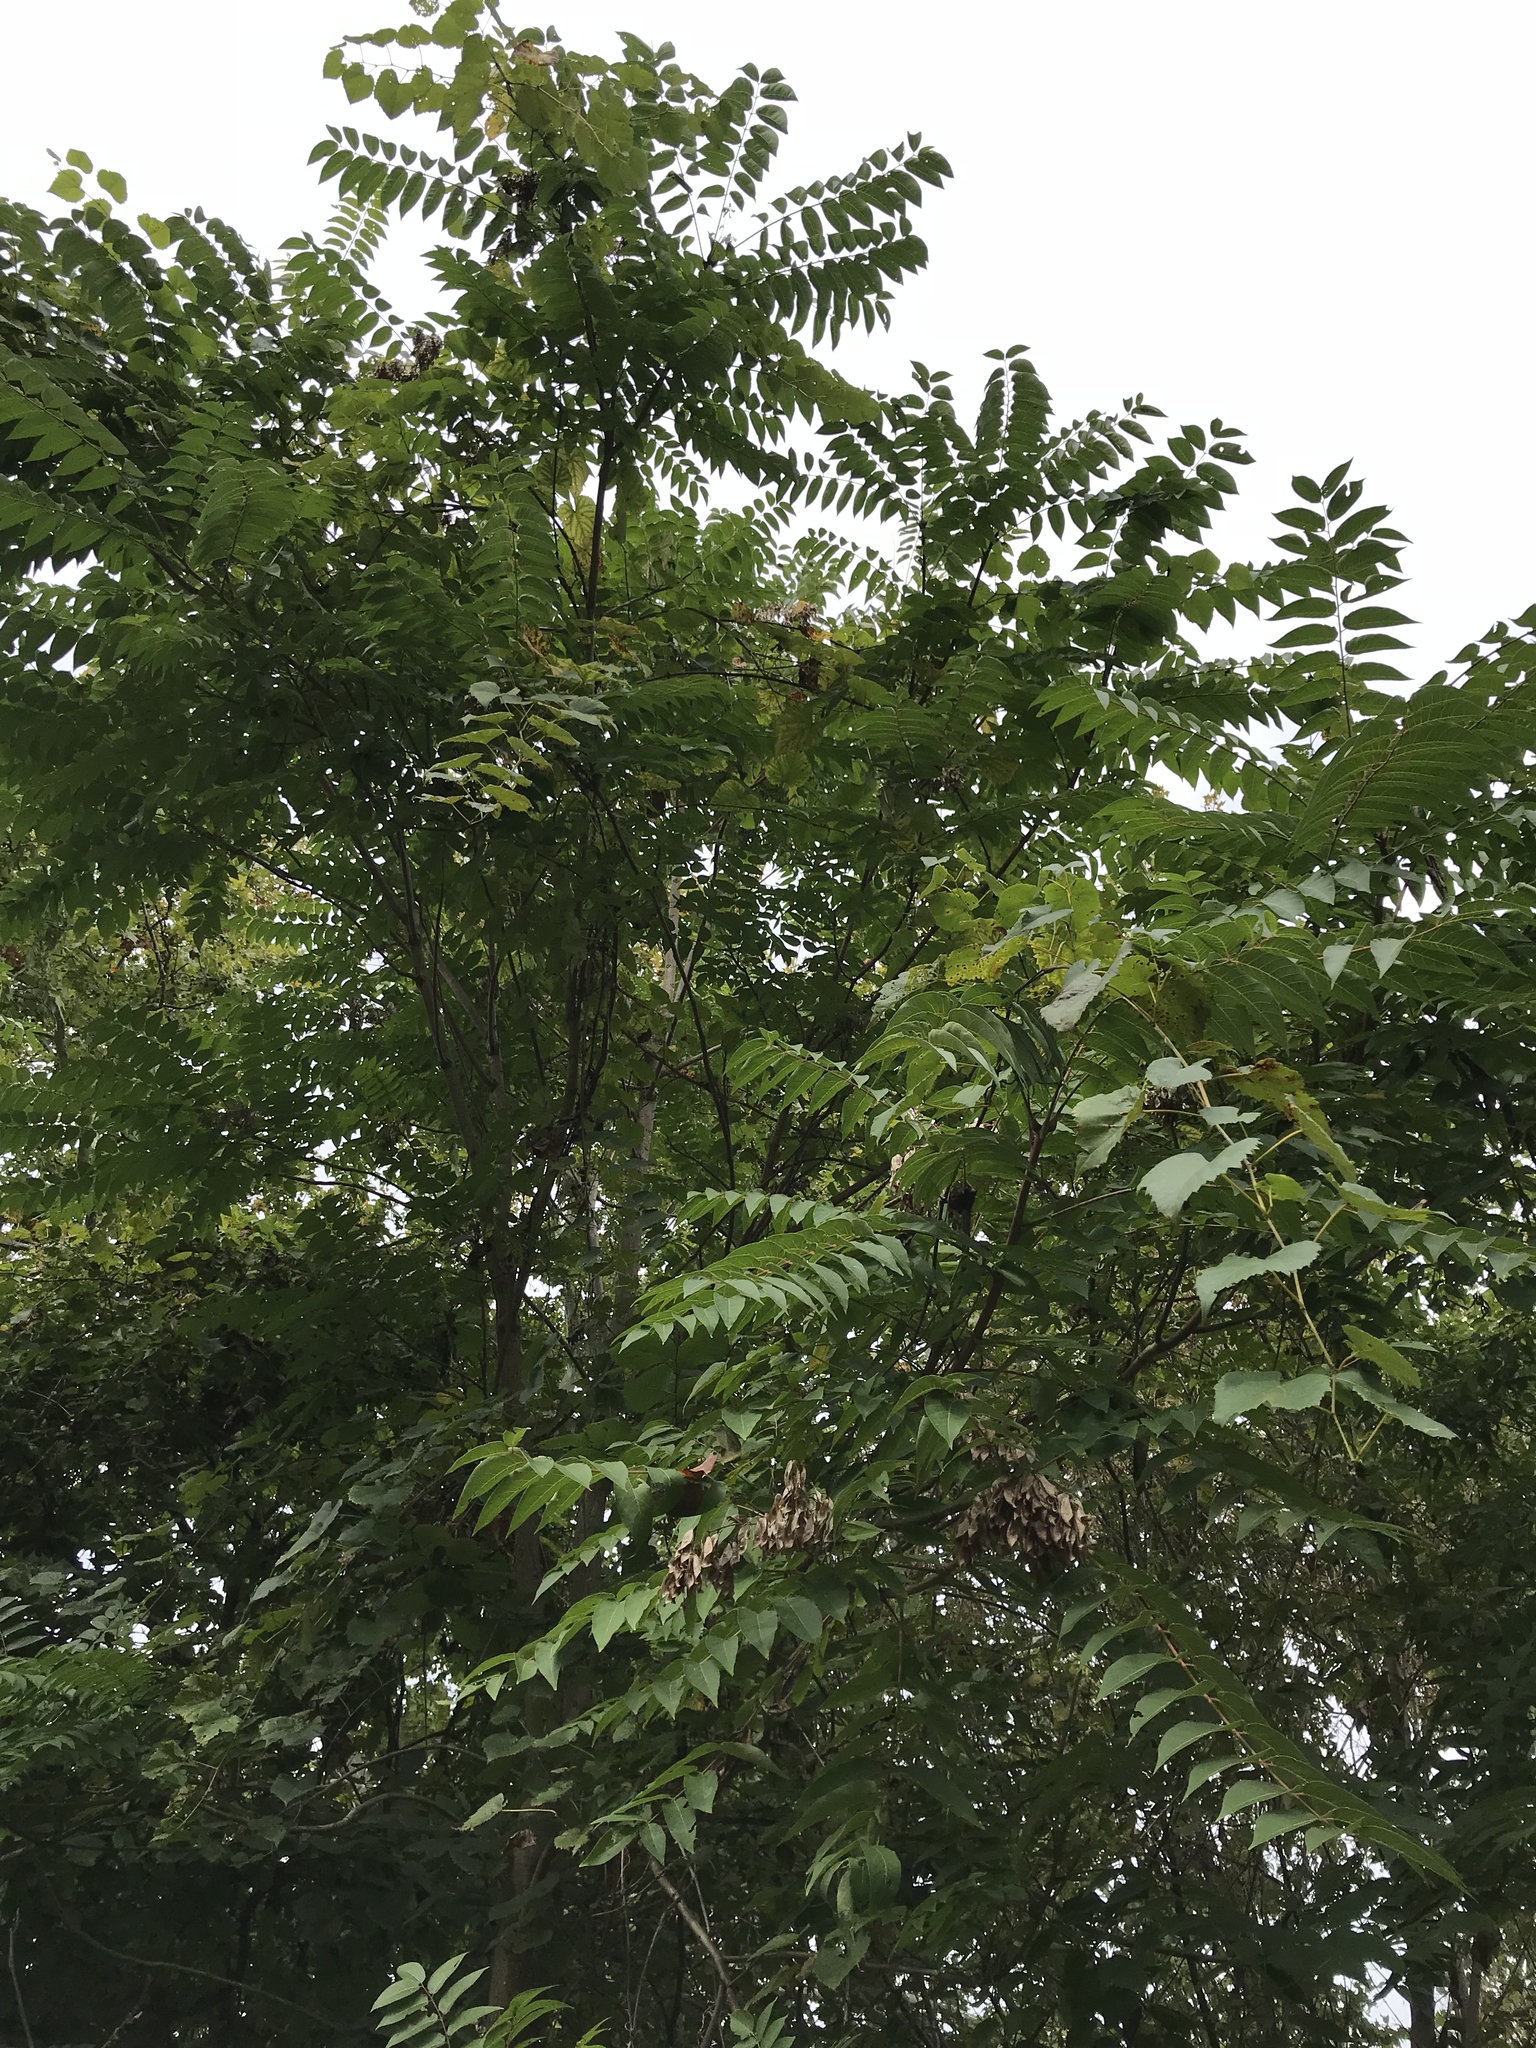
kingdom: Plantae
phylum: Tracheophyta
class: Magnoliopsida
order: Sapindales
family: Simaroubaceae
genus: Ailanthus
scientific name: Ailanthus altissima
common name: Tree-of-heaven
